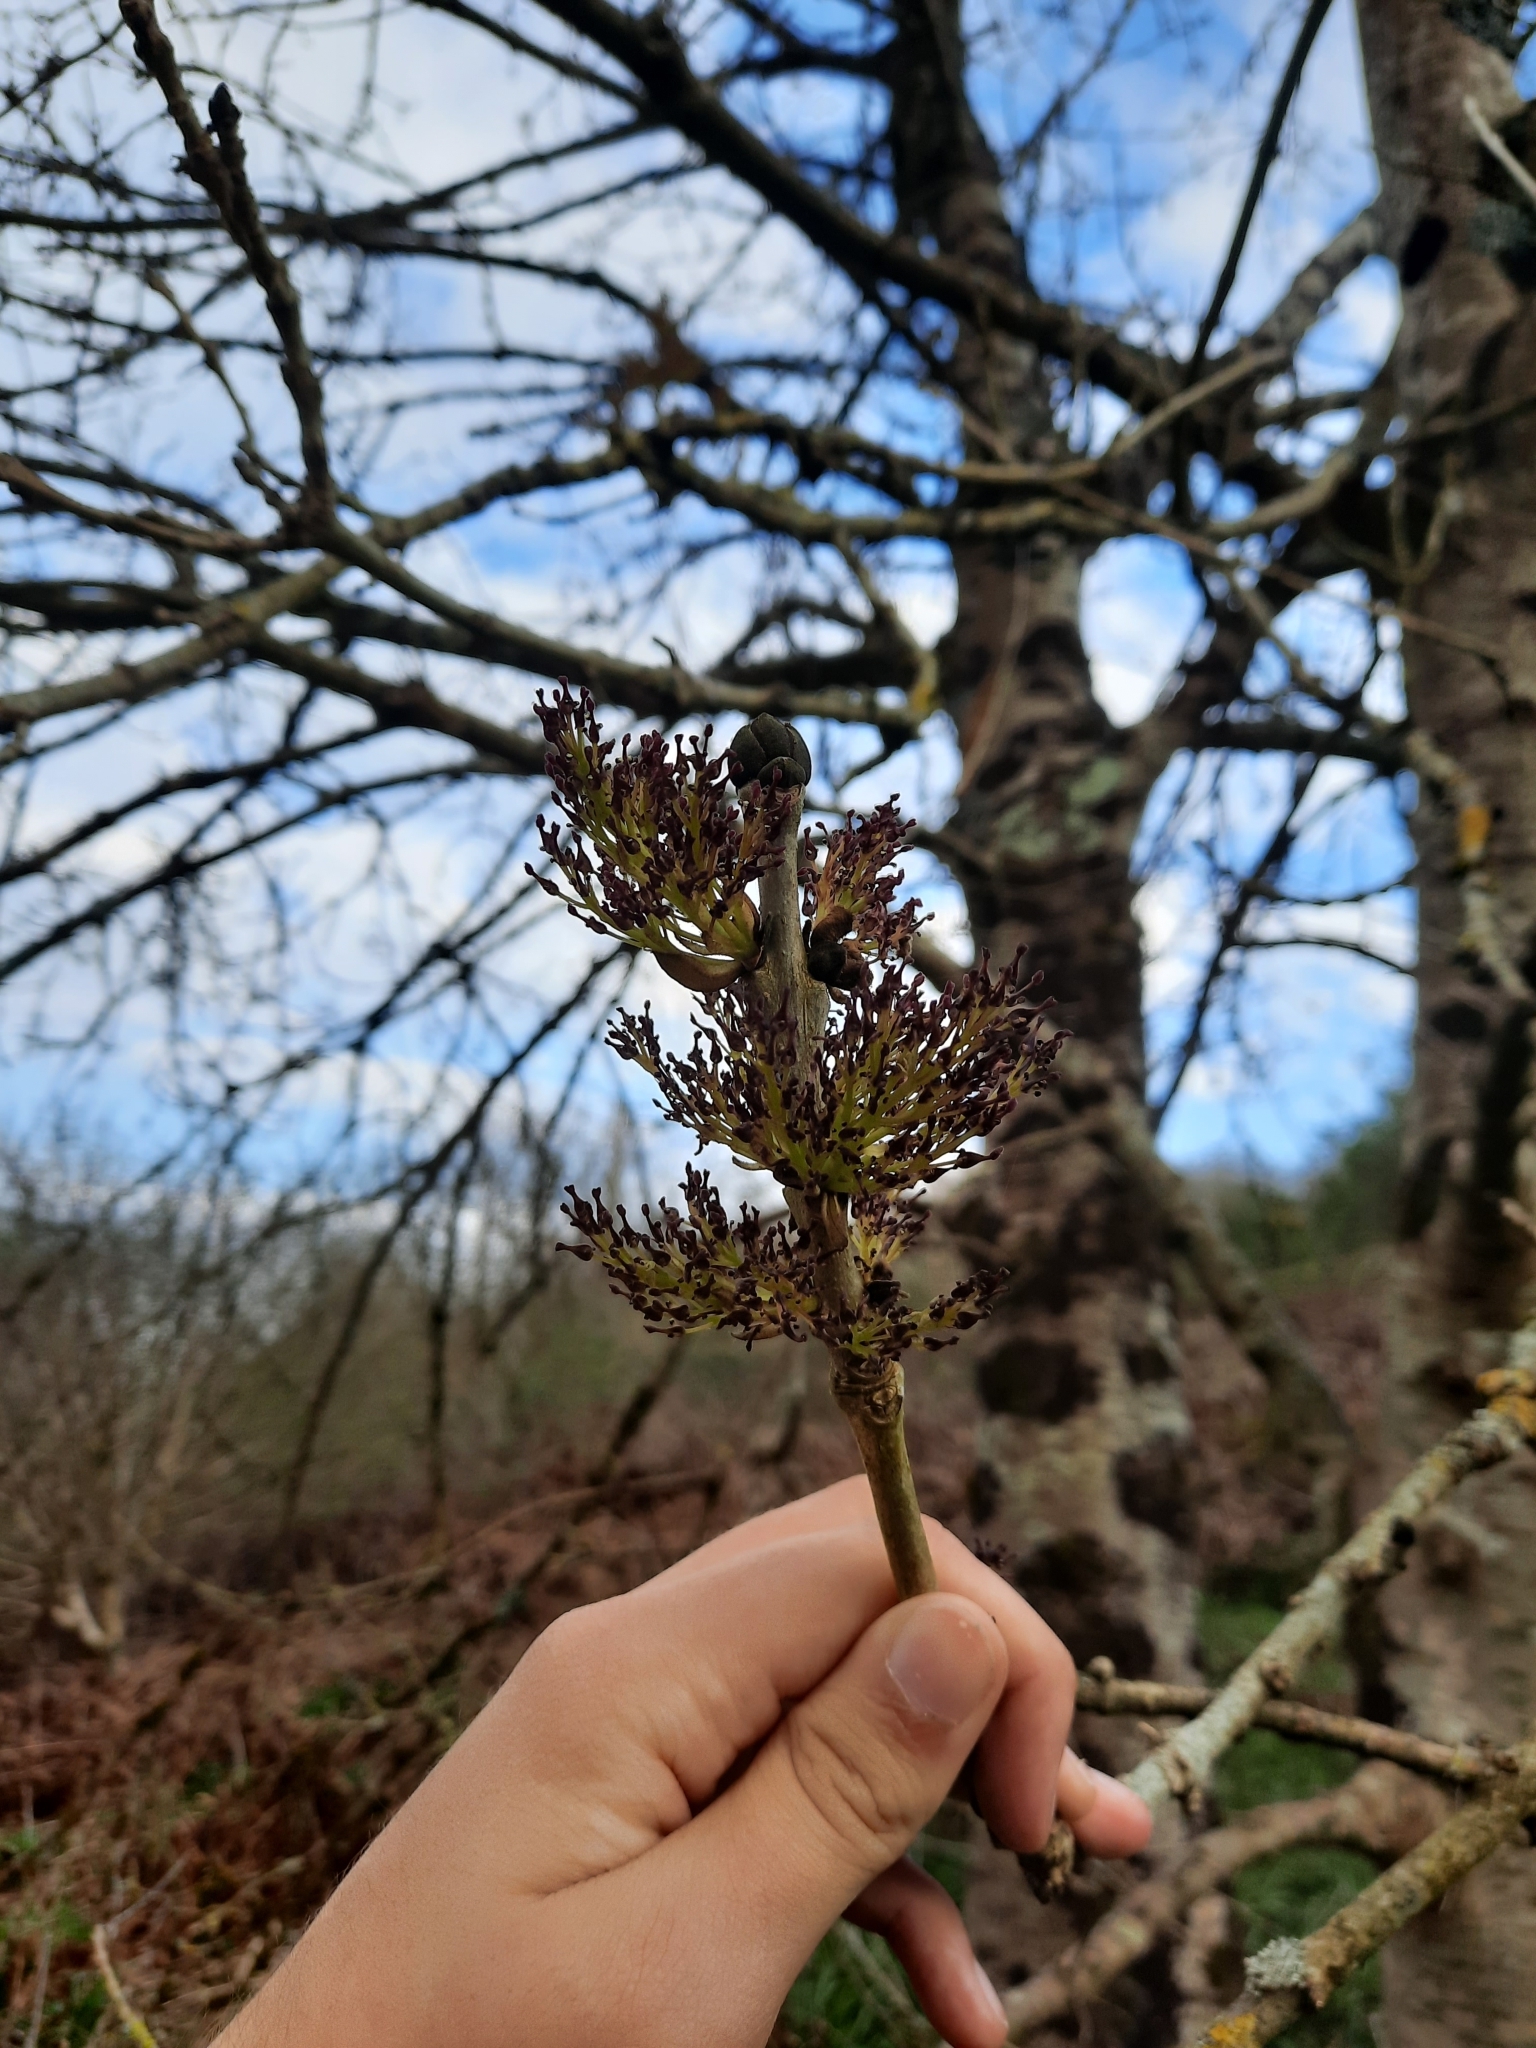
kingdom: Plantae
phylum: Tracheophyta
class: Magnoliopsida
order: Lamiales
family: Oleaceae
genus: Fraxinus
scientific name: Fraxinus excelsior
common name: European ash
